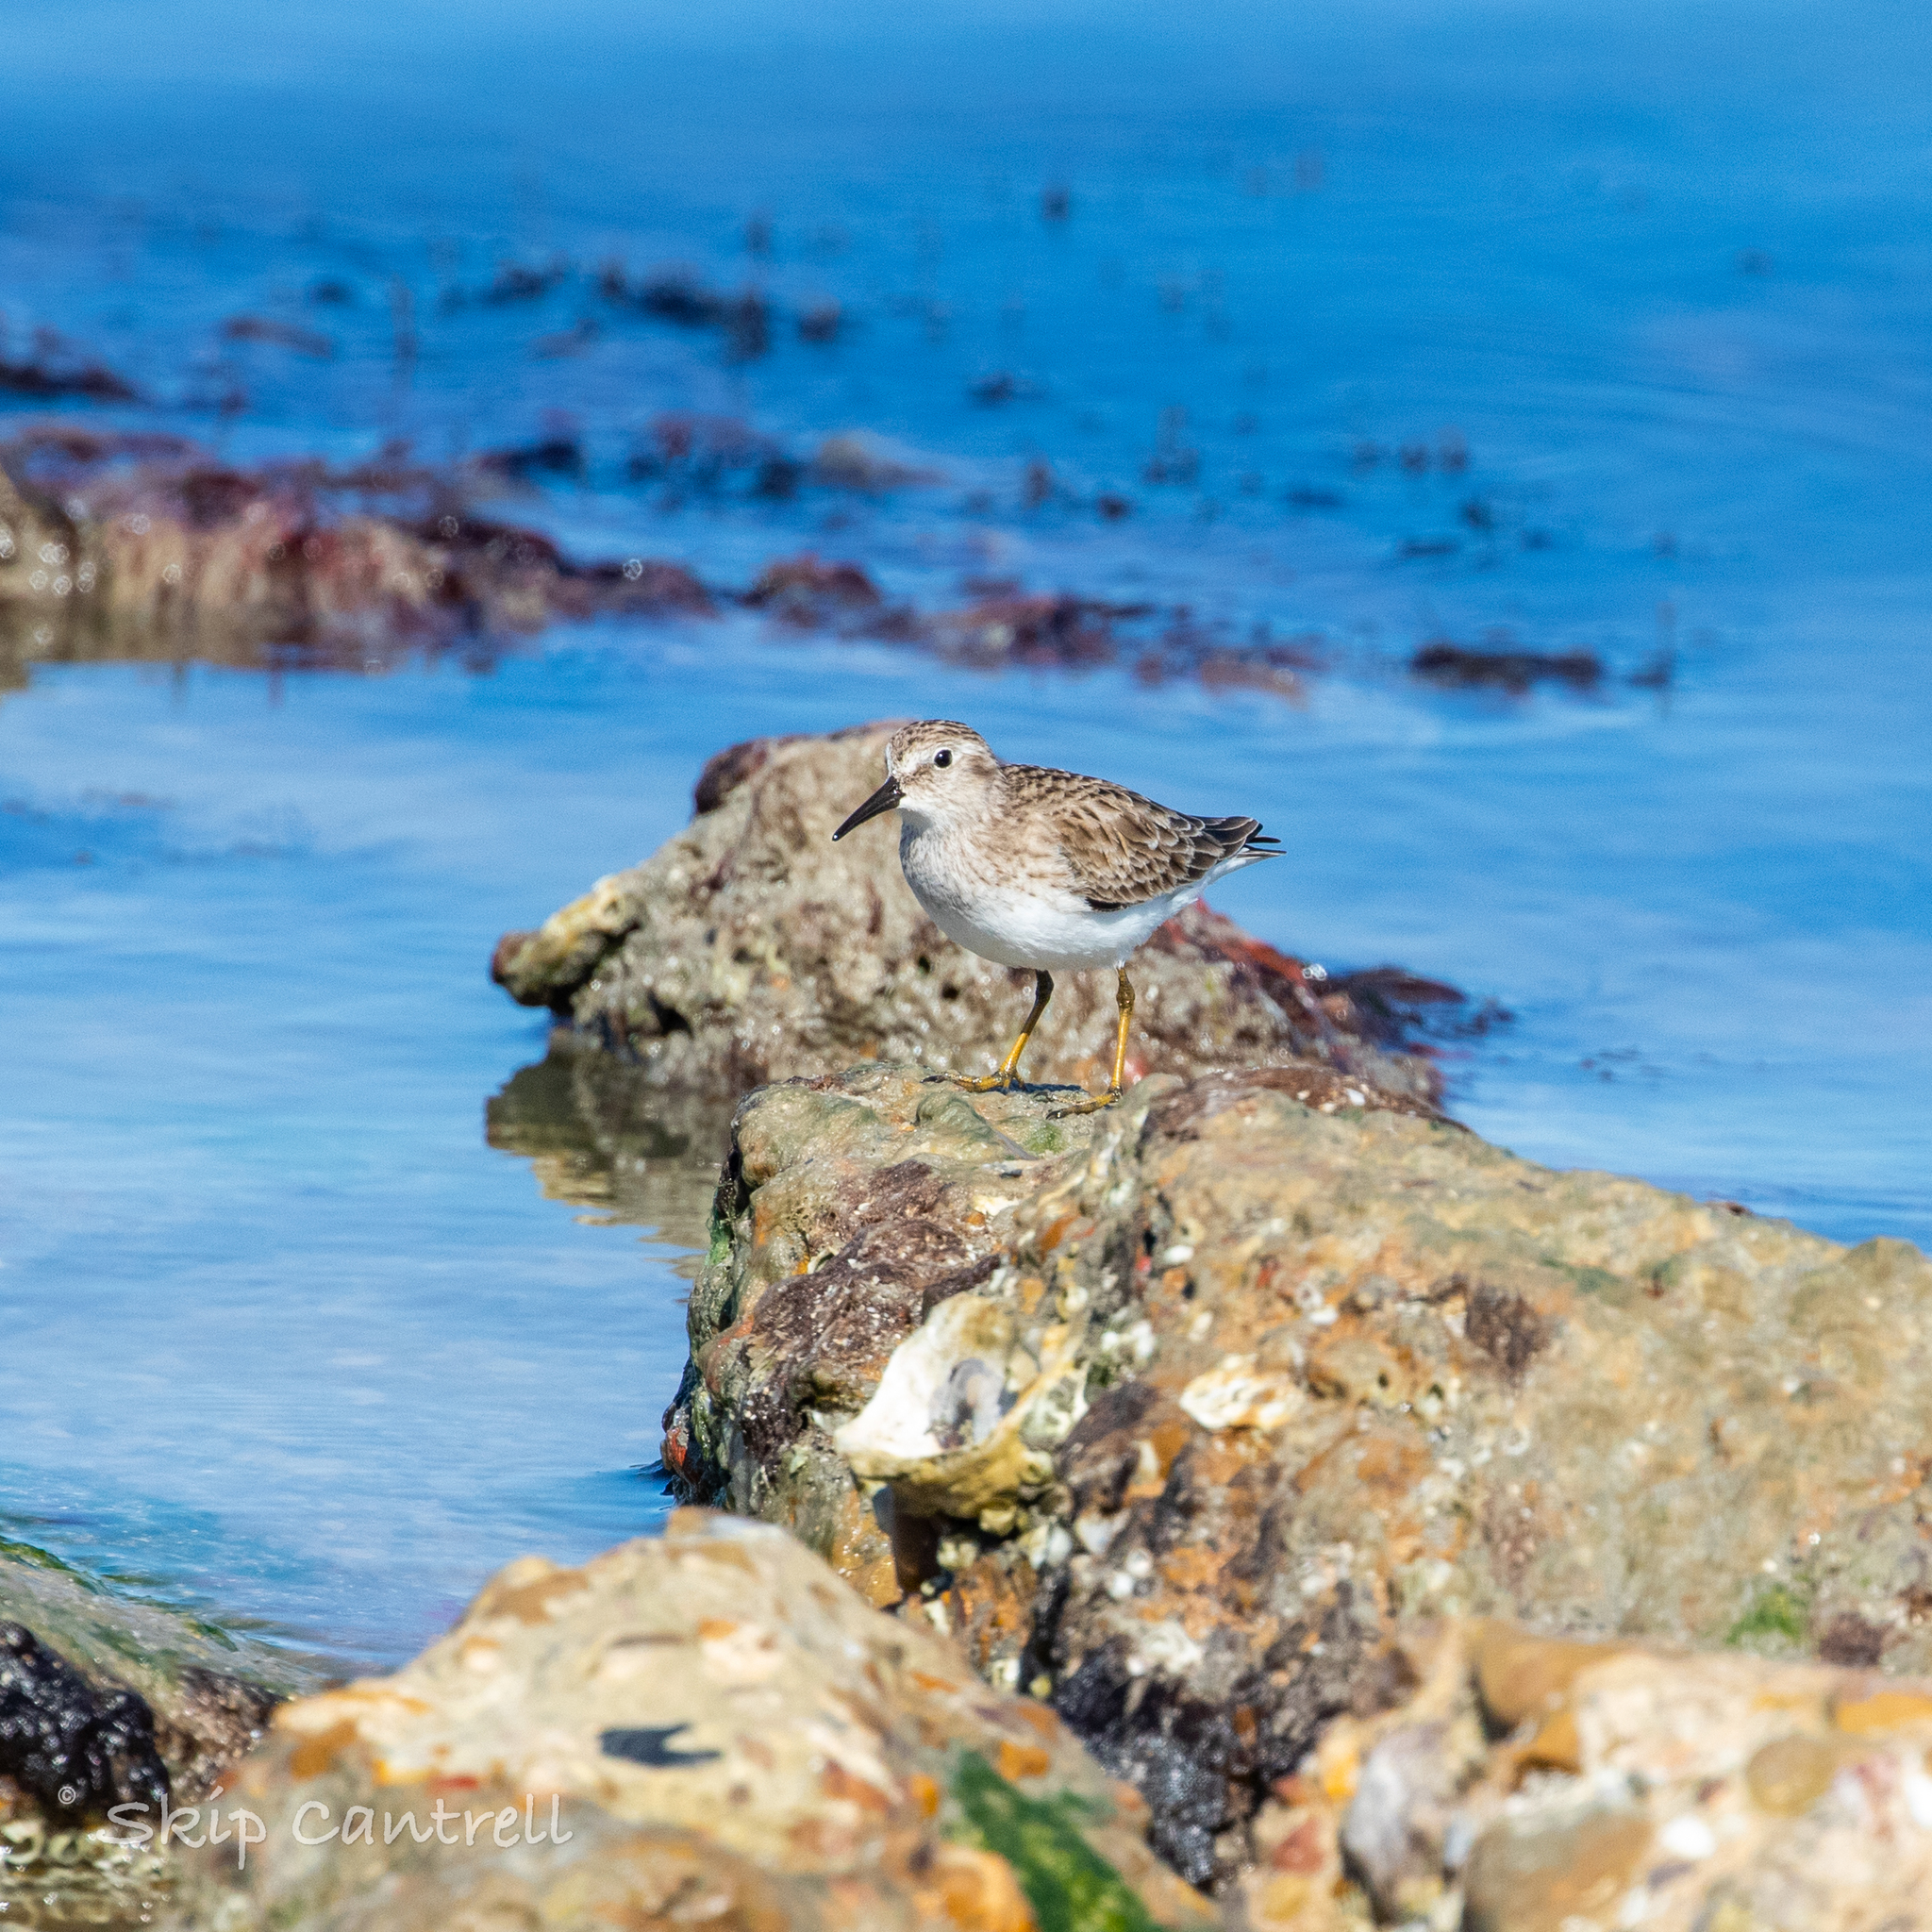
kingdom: Animalia
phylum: Chordata
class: Aves
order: Charadriiformes
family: Scolopacidae
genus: Calidris
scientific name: Calidris minutilla
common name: Least sandpiper
